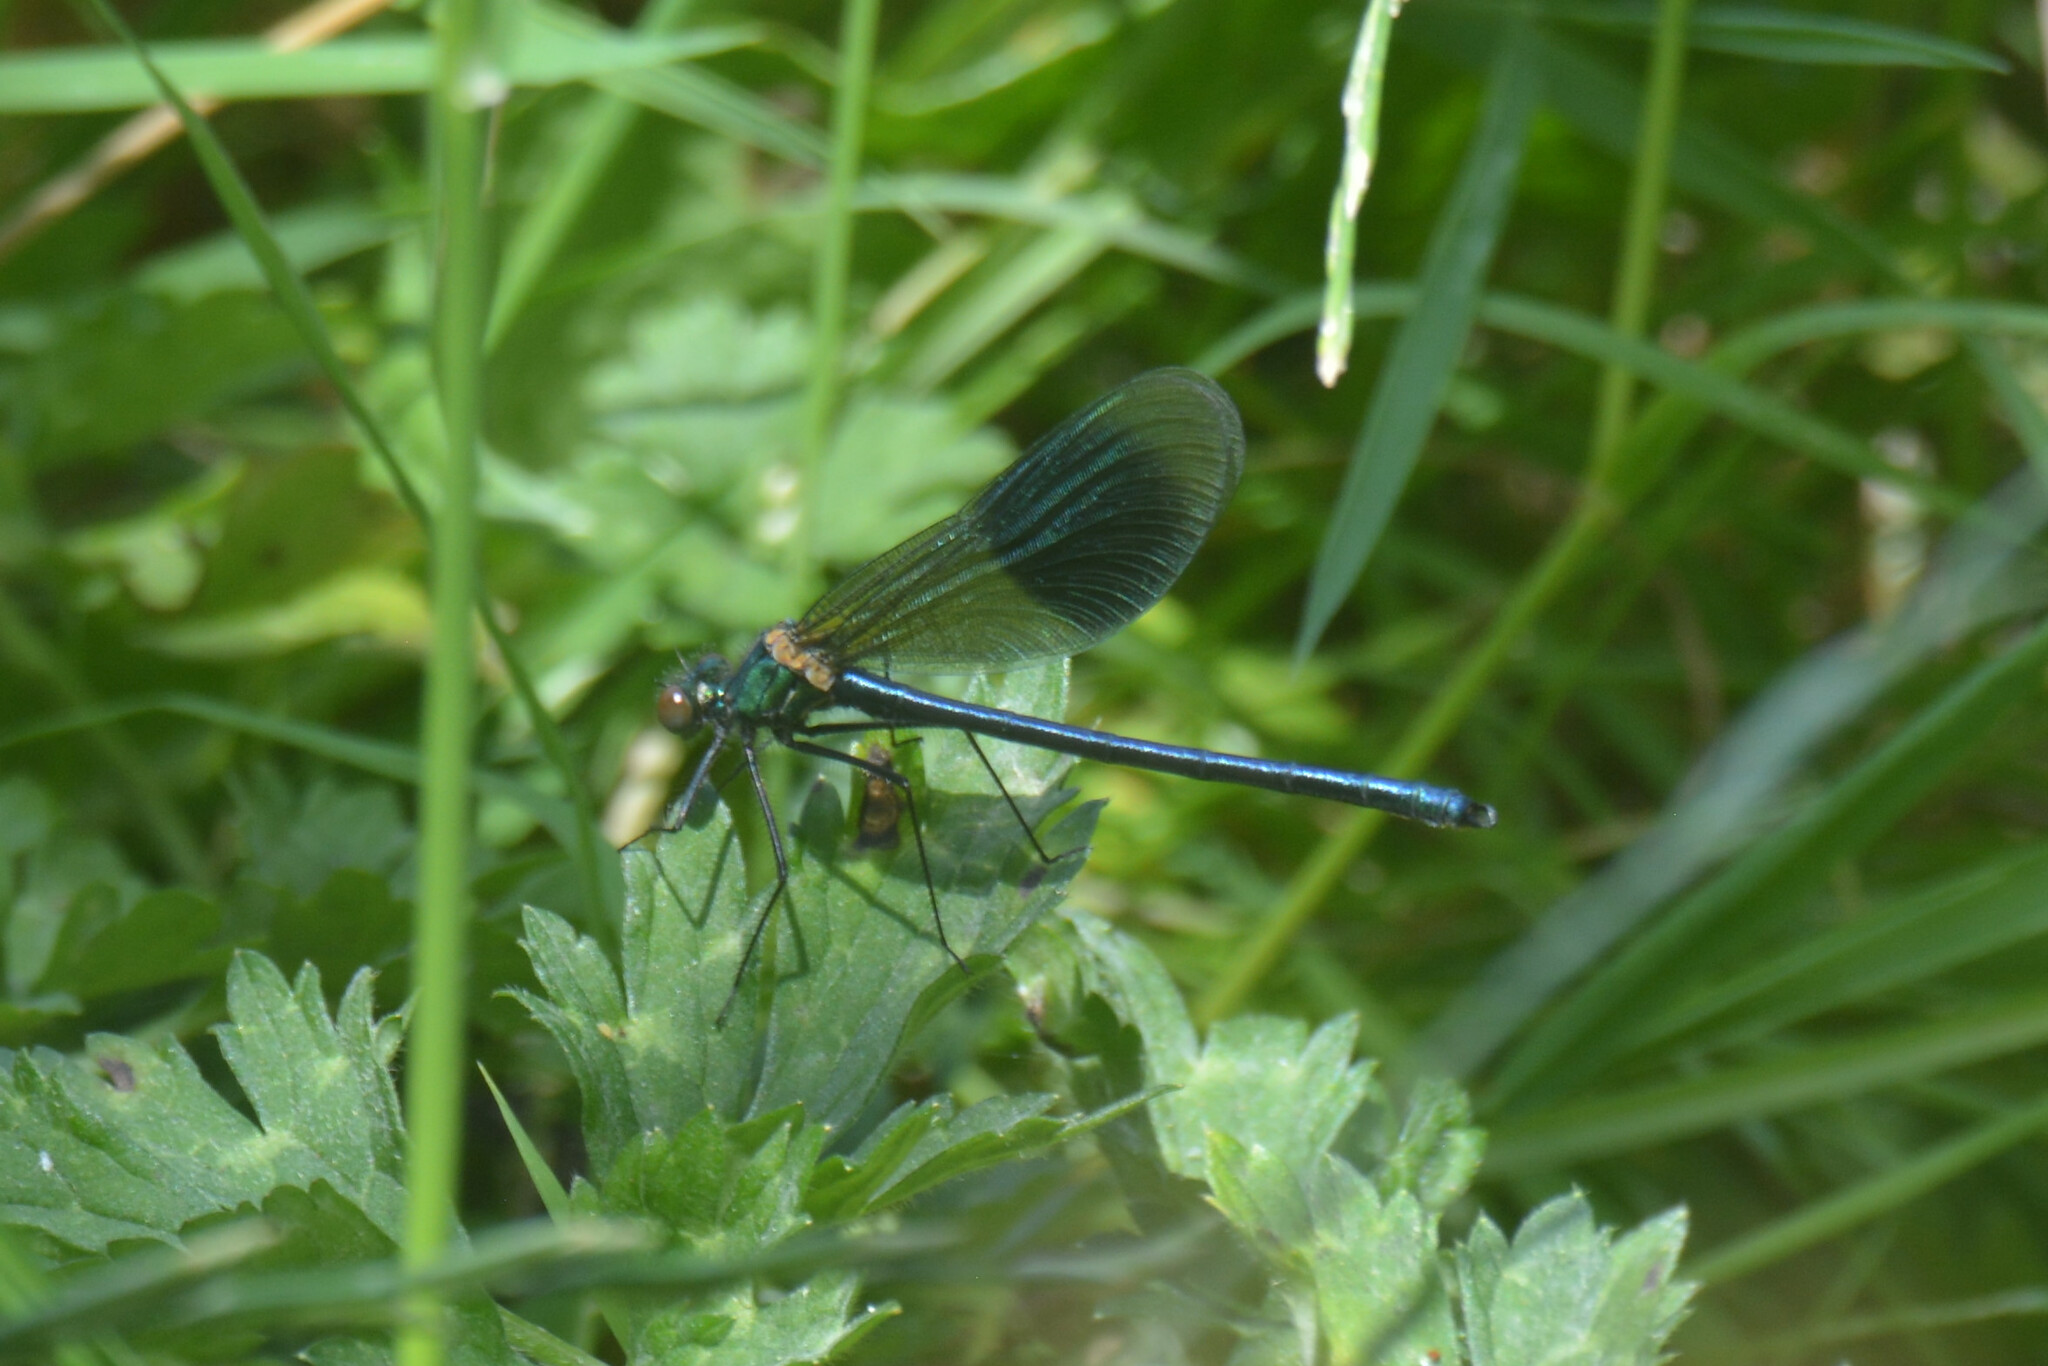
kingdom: Animalia
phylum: Arthropoda
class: Insecta
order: Odonata
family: Calopterygidae
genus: Calopteryx
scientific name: Calopteryx splendens
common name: Banded demoiselle
